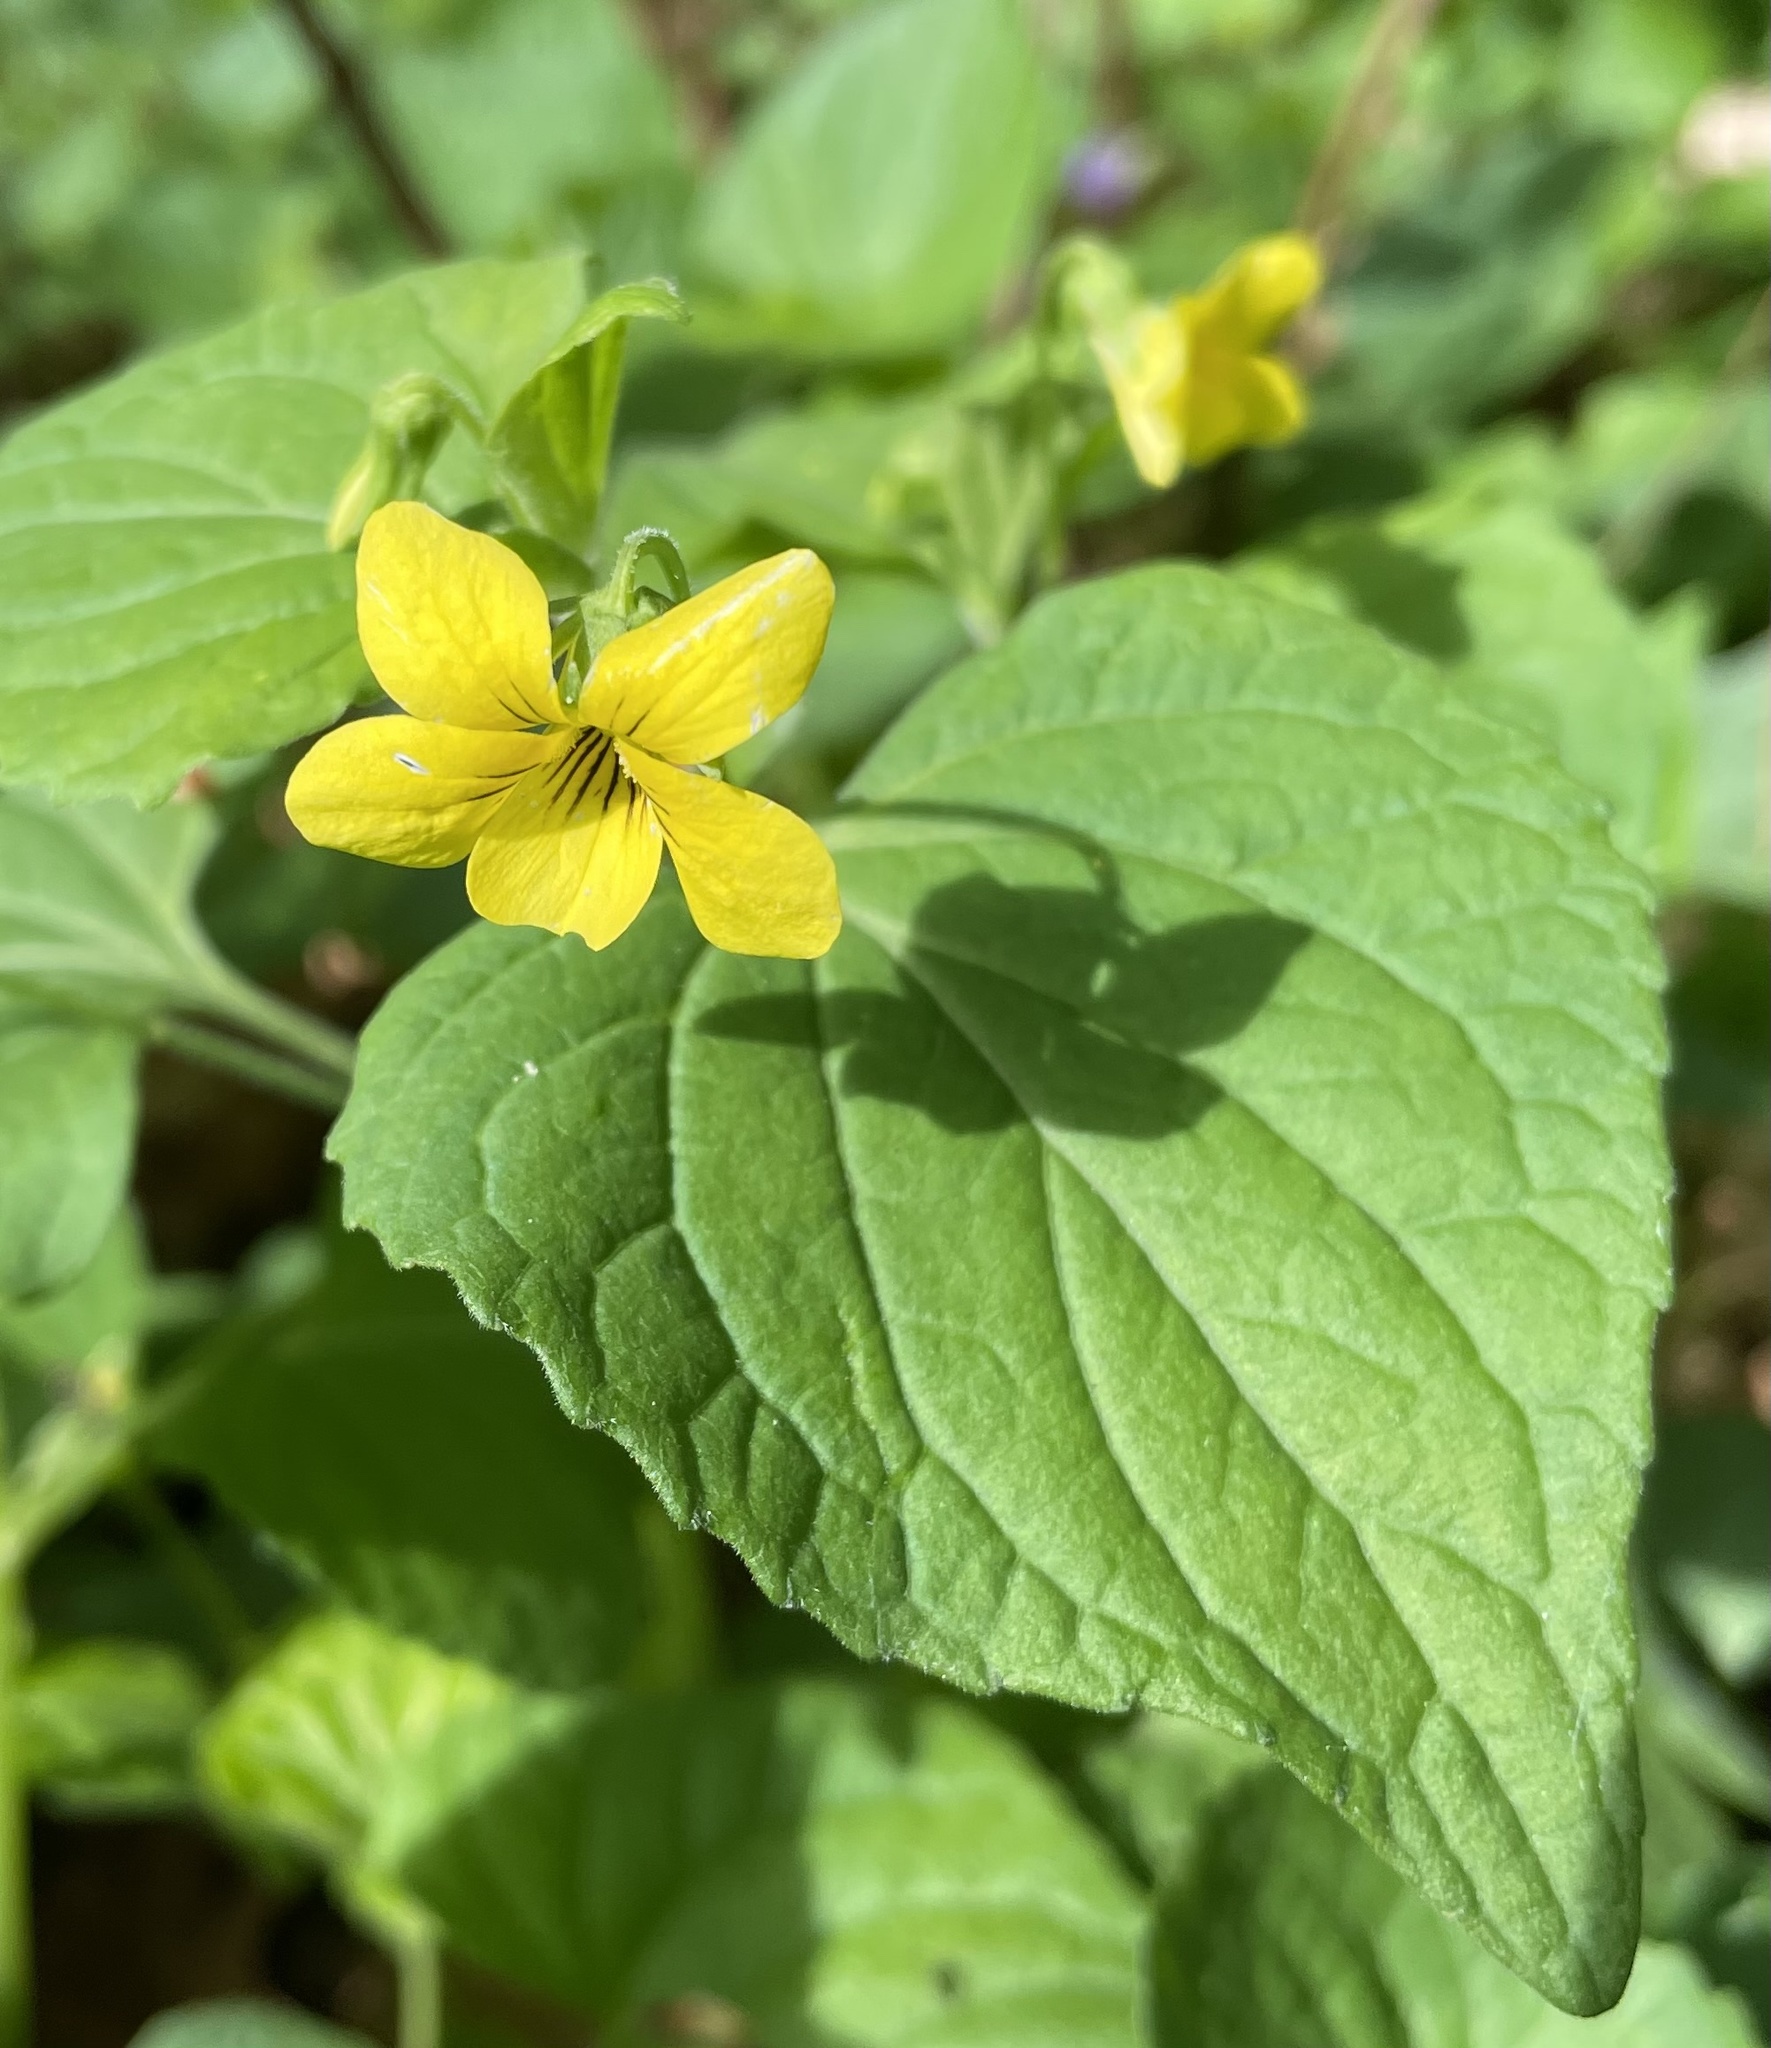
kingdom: Plantae
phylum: Tracheophyta
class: Magnoliopsida
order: Malpighiales
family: Violaceae
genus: Viola
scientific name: Viola eriocarpa
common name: Smooth yellow violet
